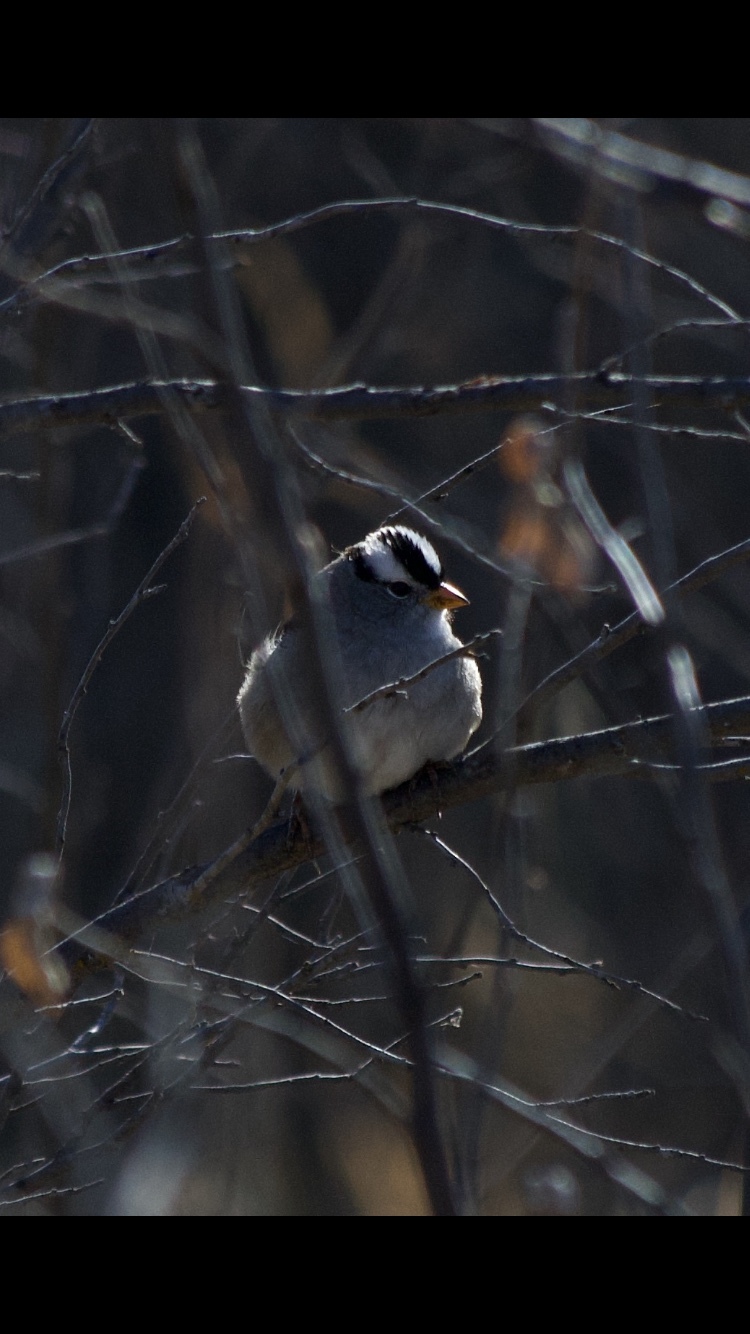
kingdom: Animalia
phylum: Chordata
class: Aves
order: Passeriformes
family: Passerellidae
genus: Zonotrichia
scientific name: Zonotrichia leucophrys
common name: White-crowned sparrow
